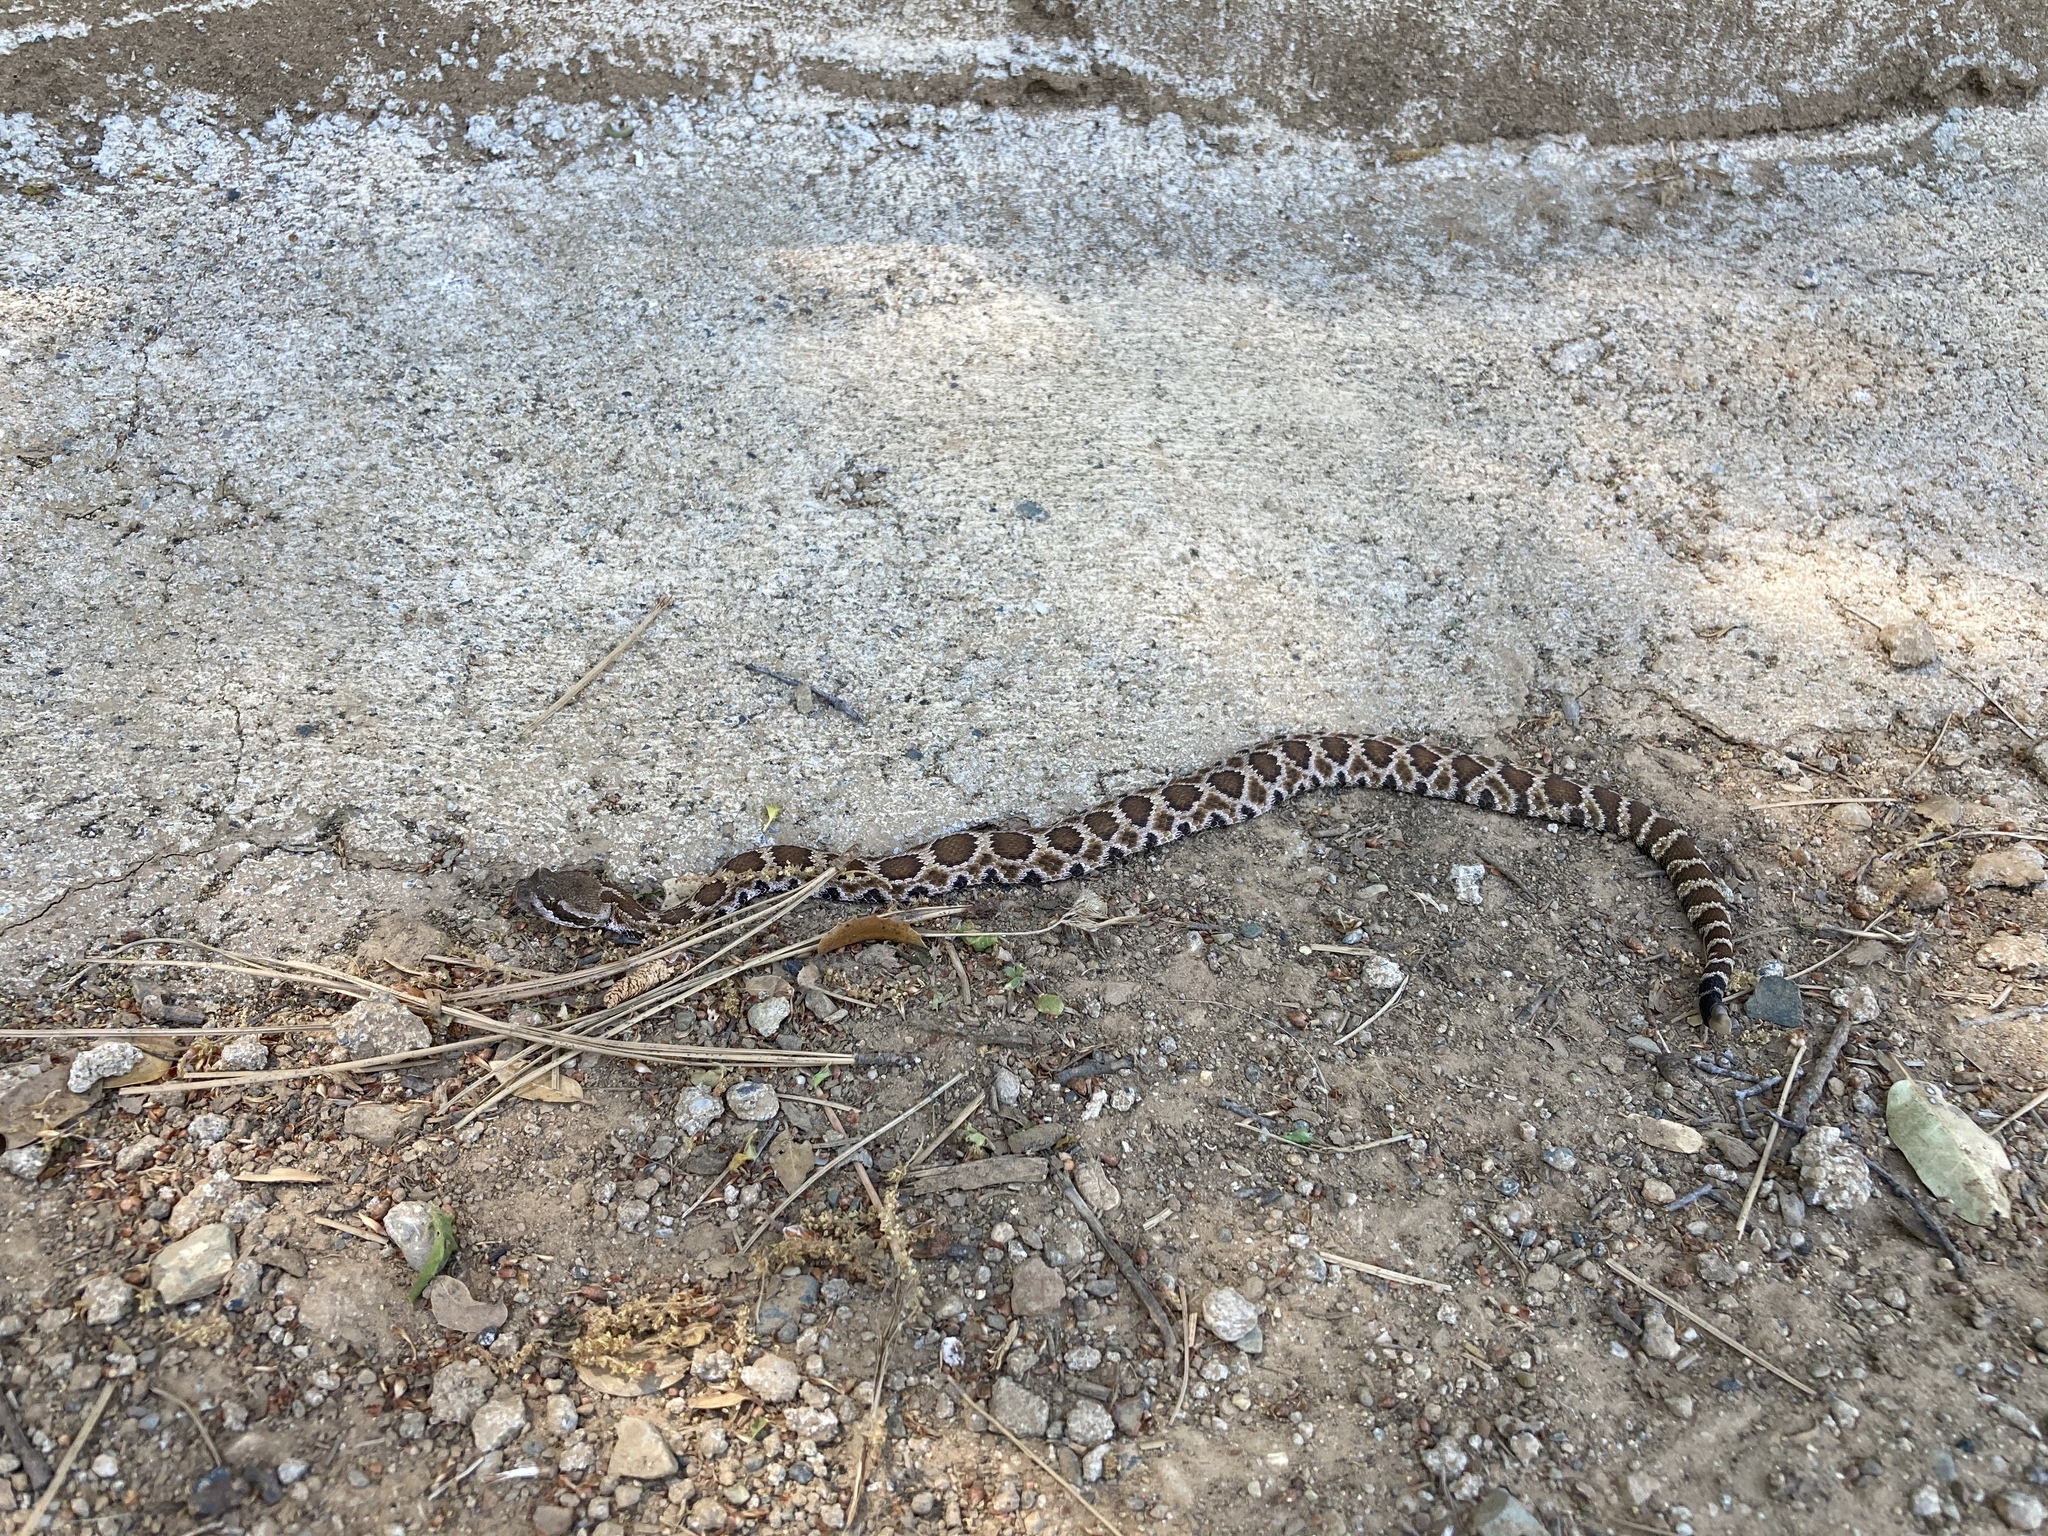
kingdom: Animalia
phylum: Chordata
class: Squamata
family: Viperidae
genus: Crotalus
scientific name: Crotalus oreganus
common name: Abyssus
